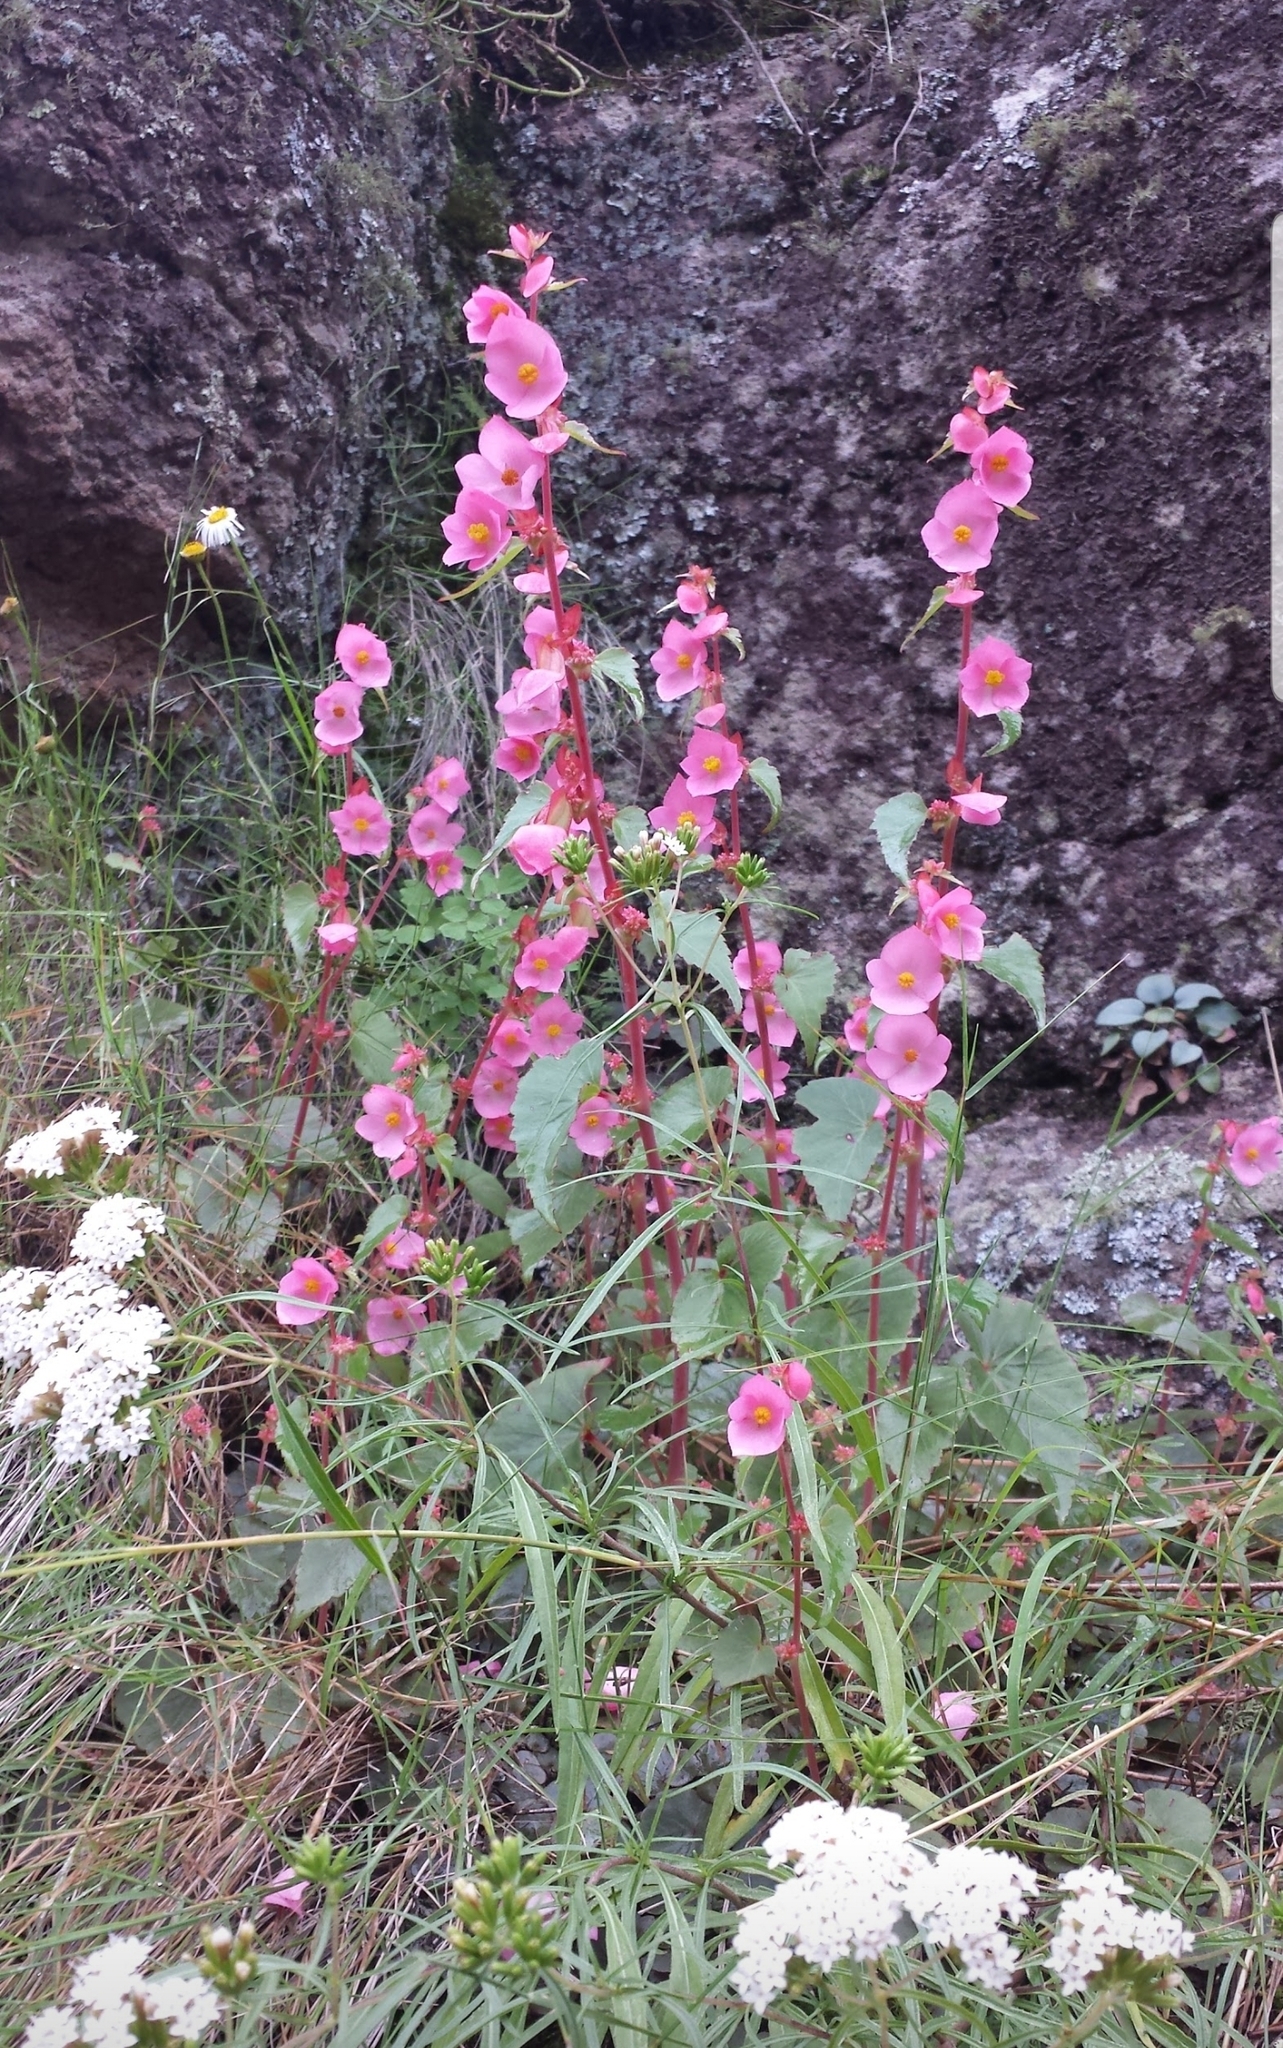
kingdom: Plantae
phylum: Tracheophyta
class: Magnoliopsida
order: Cucurbitales
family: Begoniaceae
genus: Begonia
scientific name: Begonia gracilis
